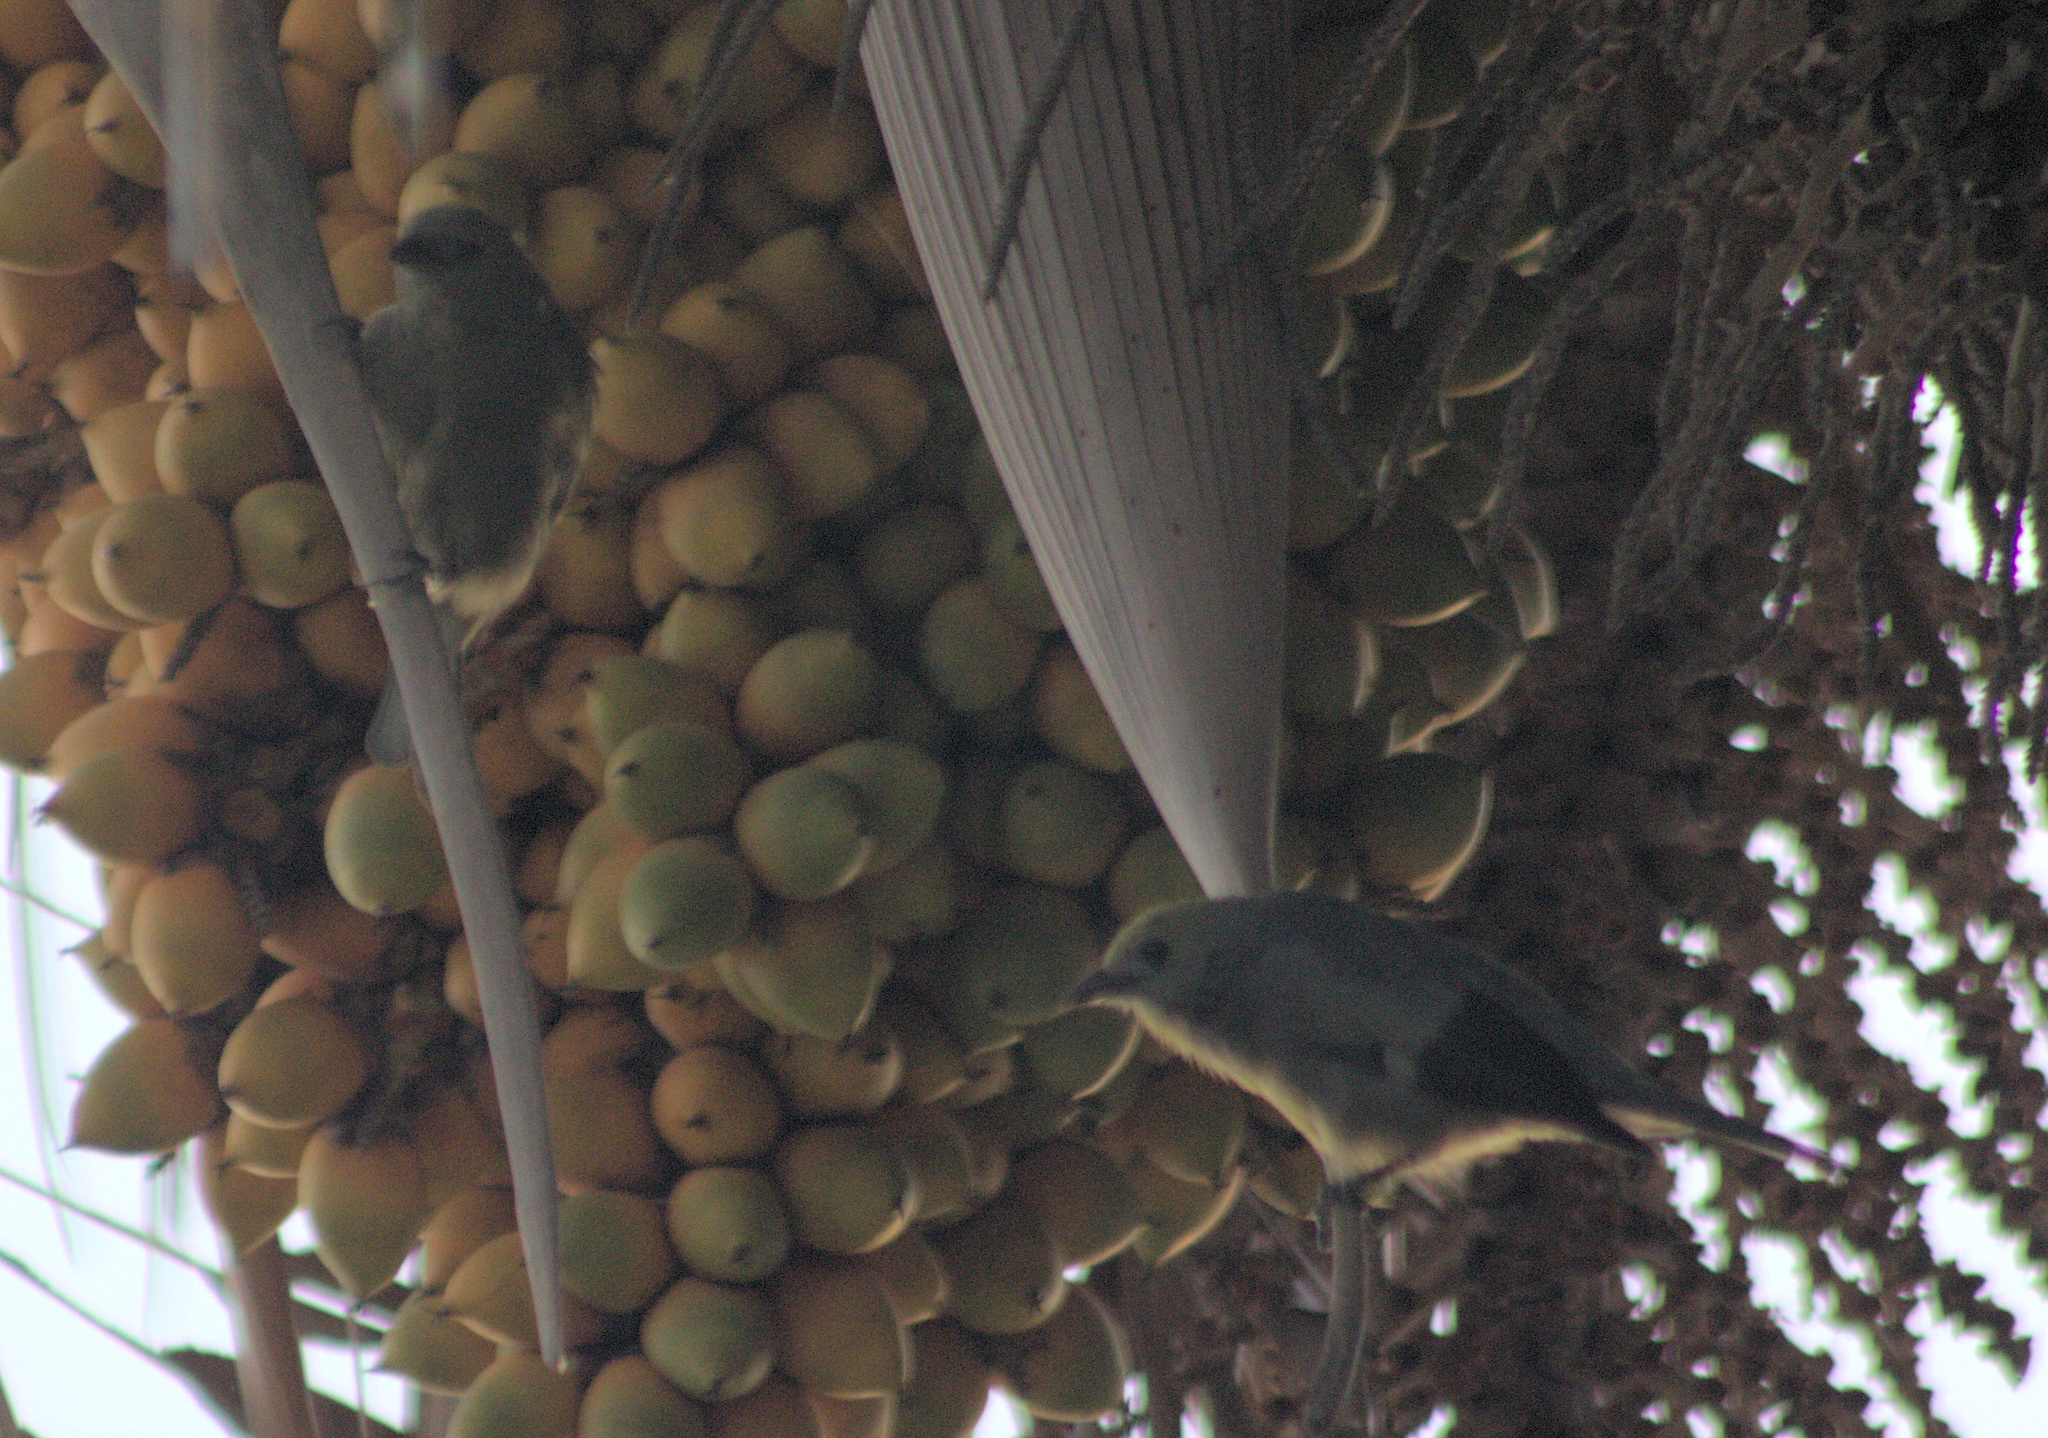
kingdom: Animalia
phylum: Chordata
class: Aves
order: Passeriformes
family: Thraupidae
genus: Thraupis
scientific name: Thraupis palmarum
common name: Palm tanager
